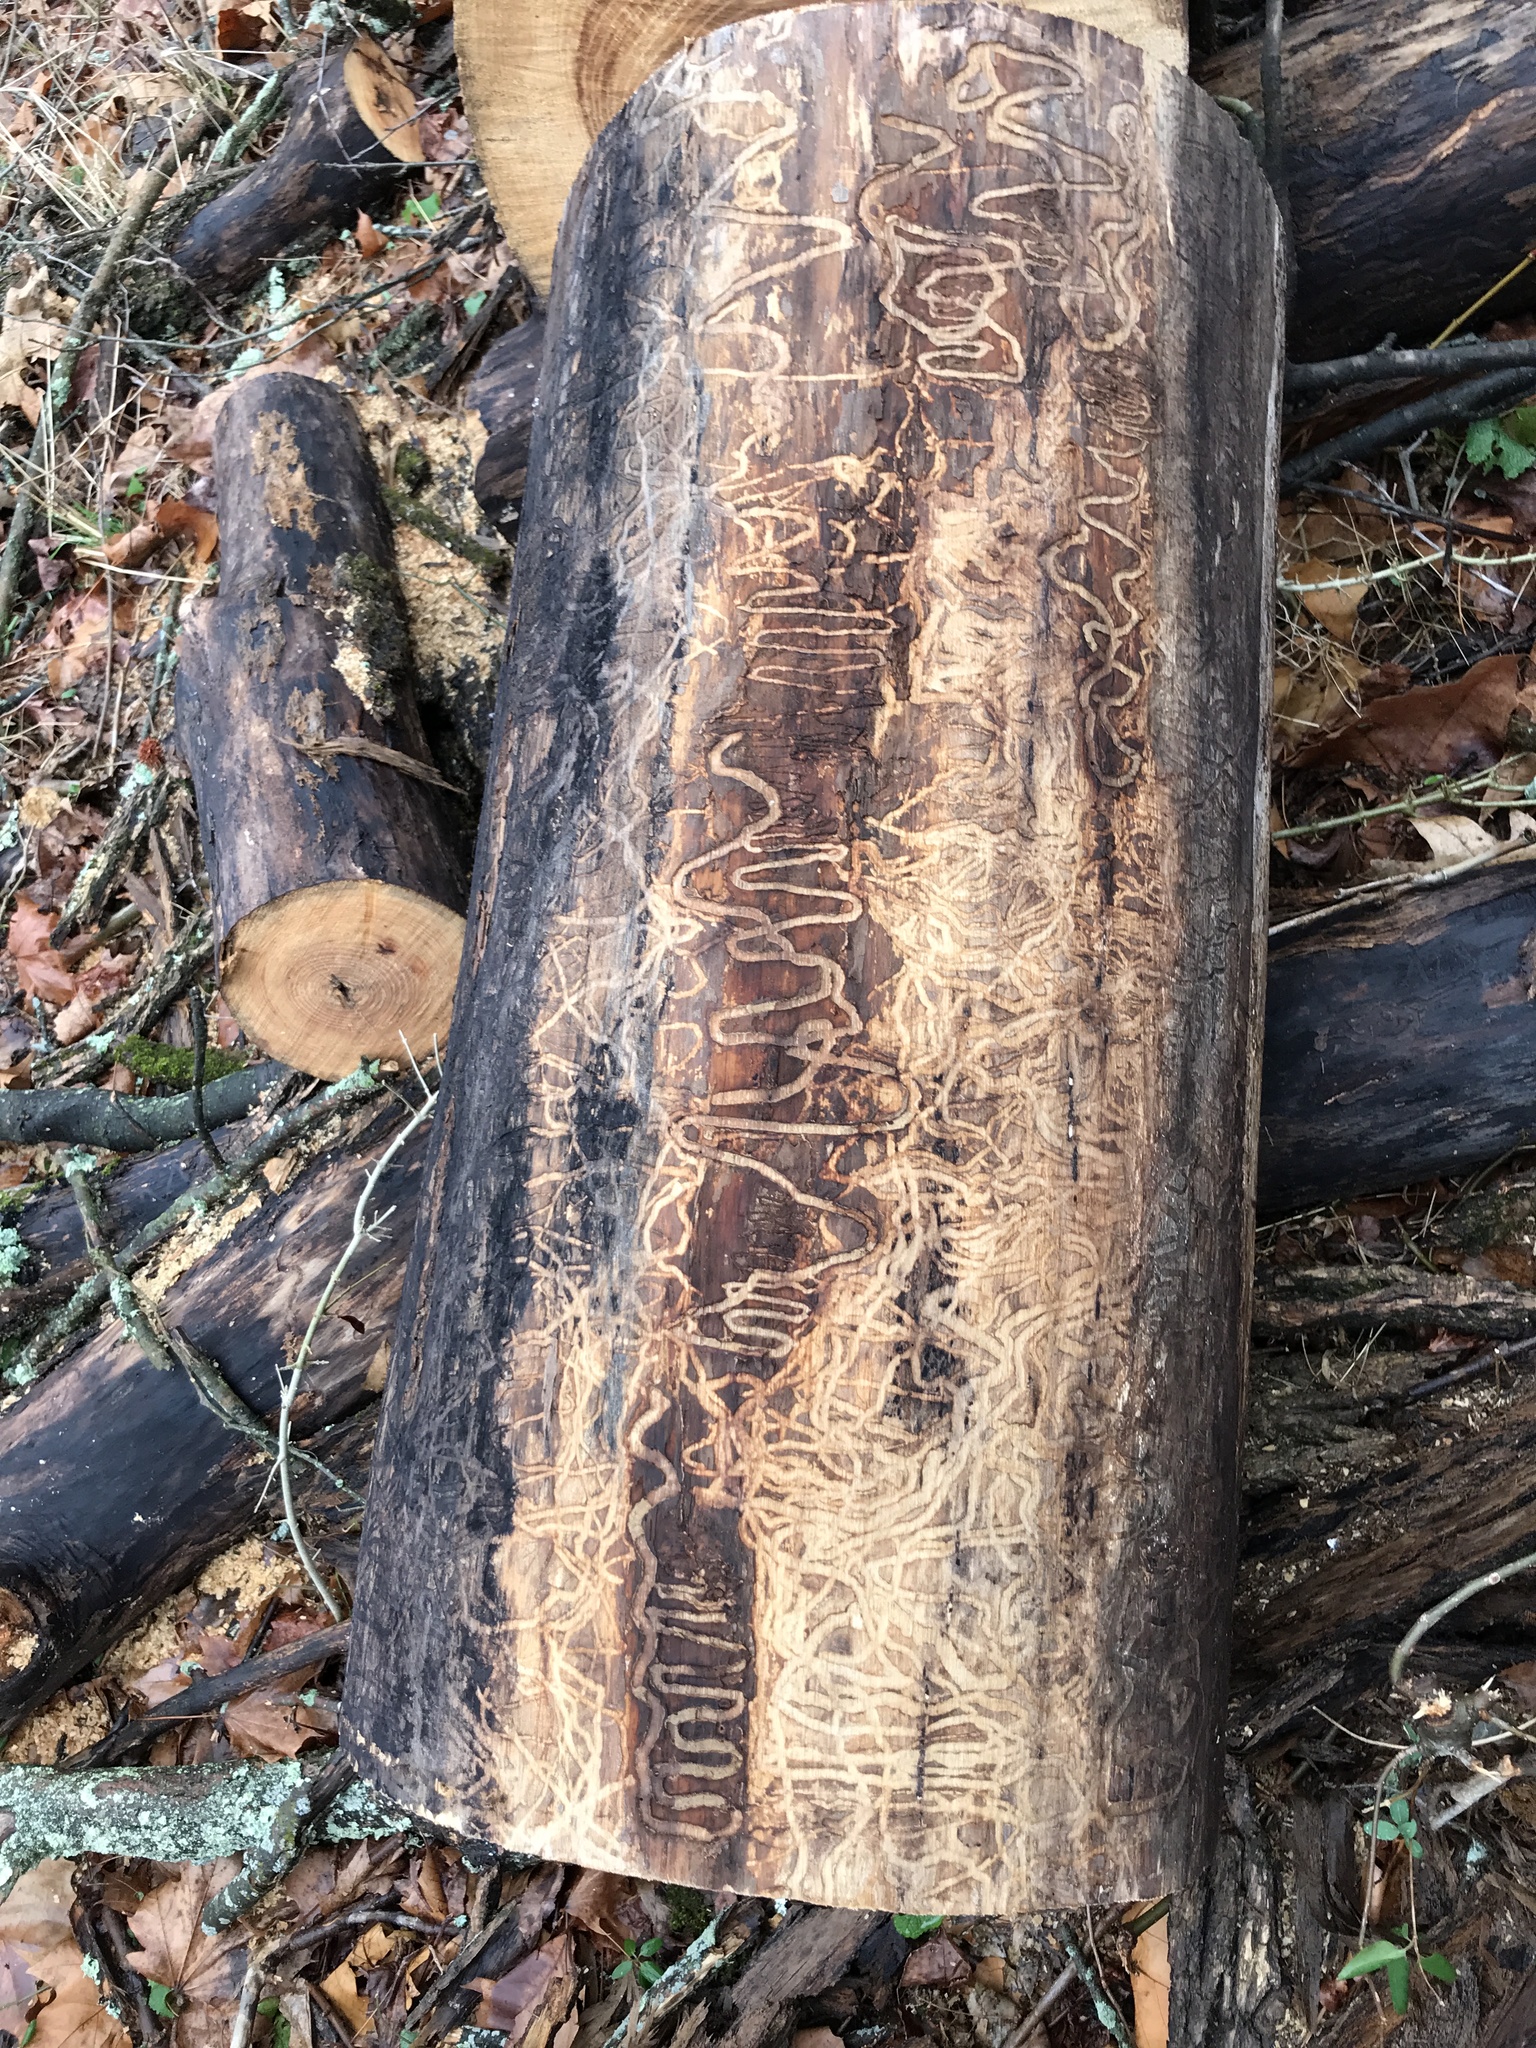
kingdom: Animalia
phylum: Arthropoda
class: Insecta
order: Coleoptera
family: Buprestidae
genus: Agrilus
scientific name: Agrilus planipennis
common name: Emerald ash borer
